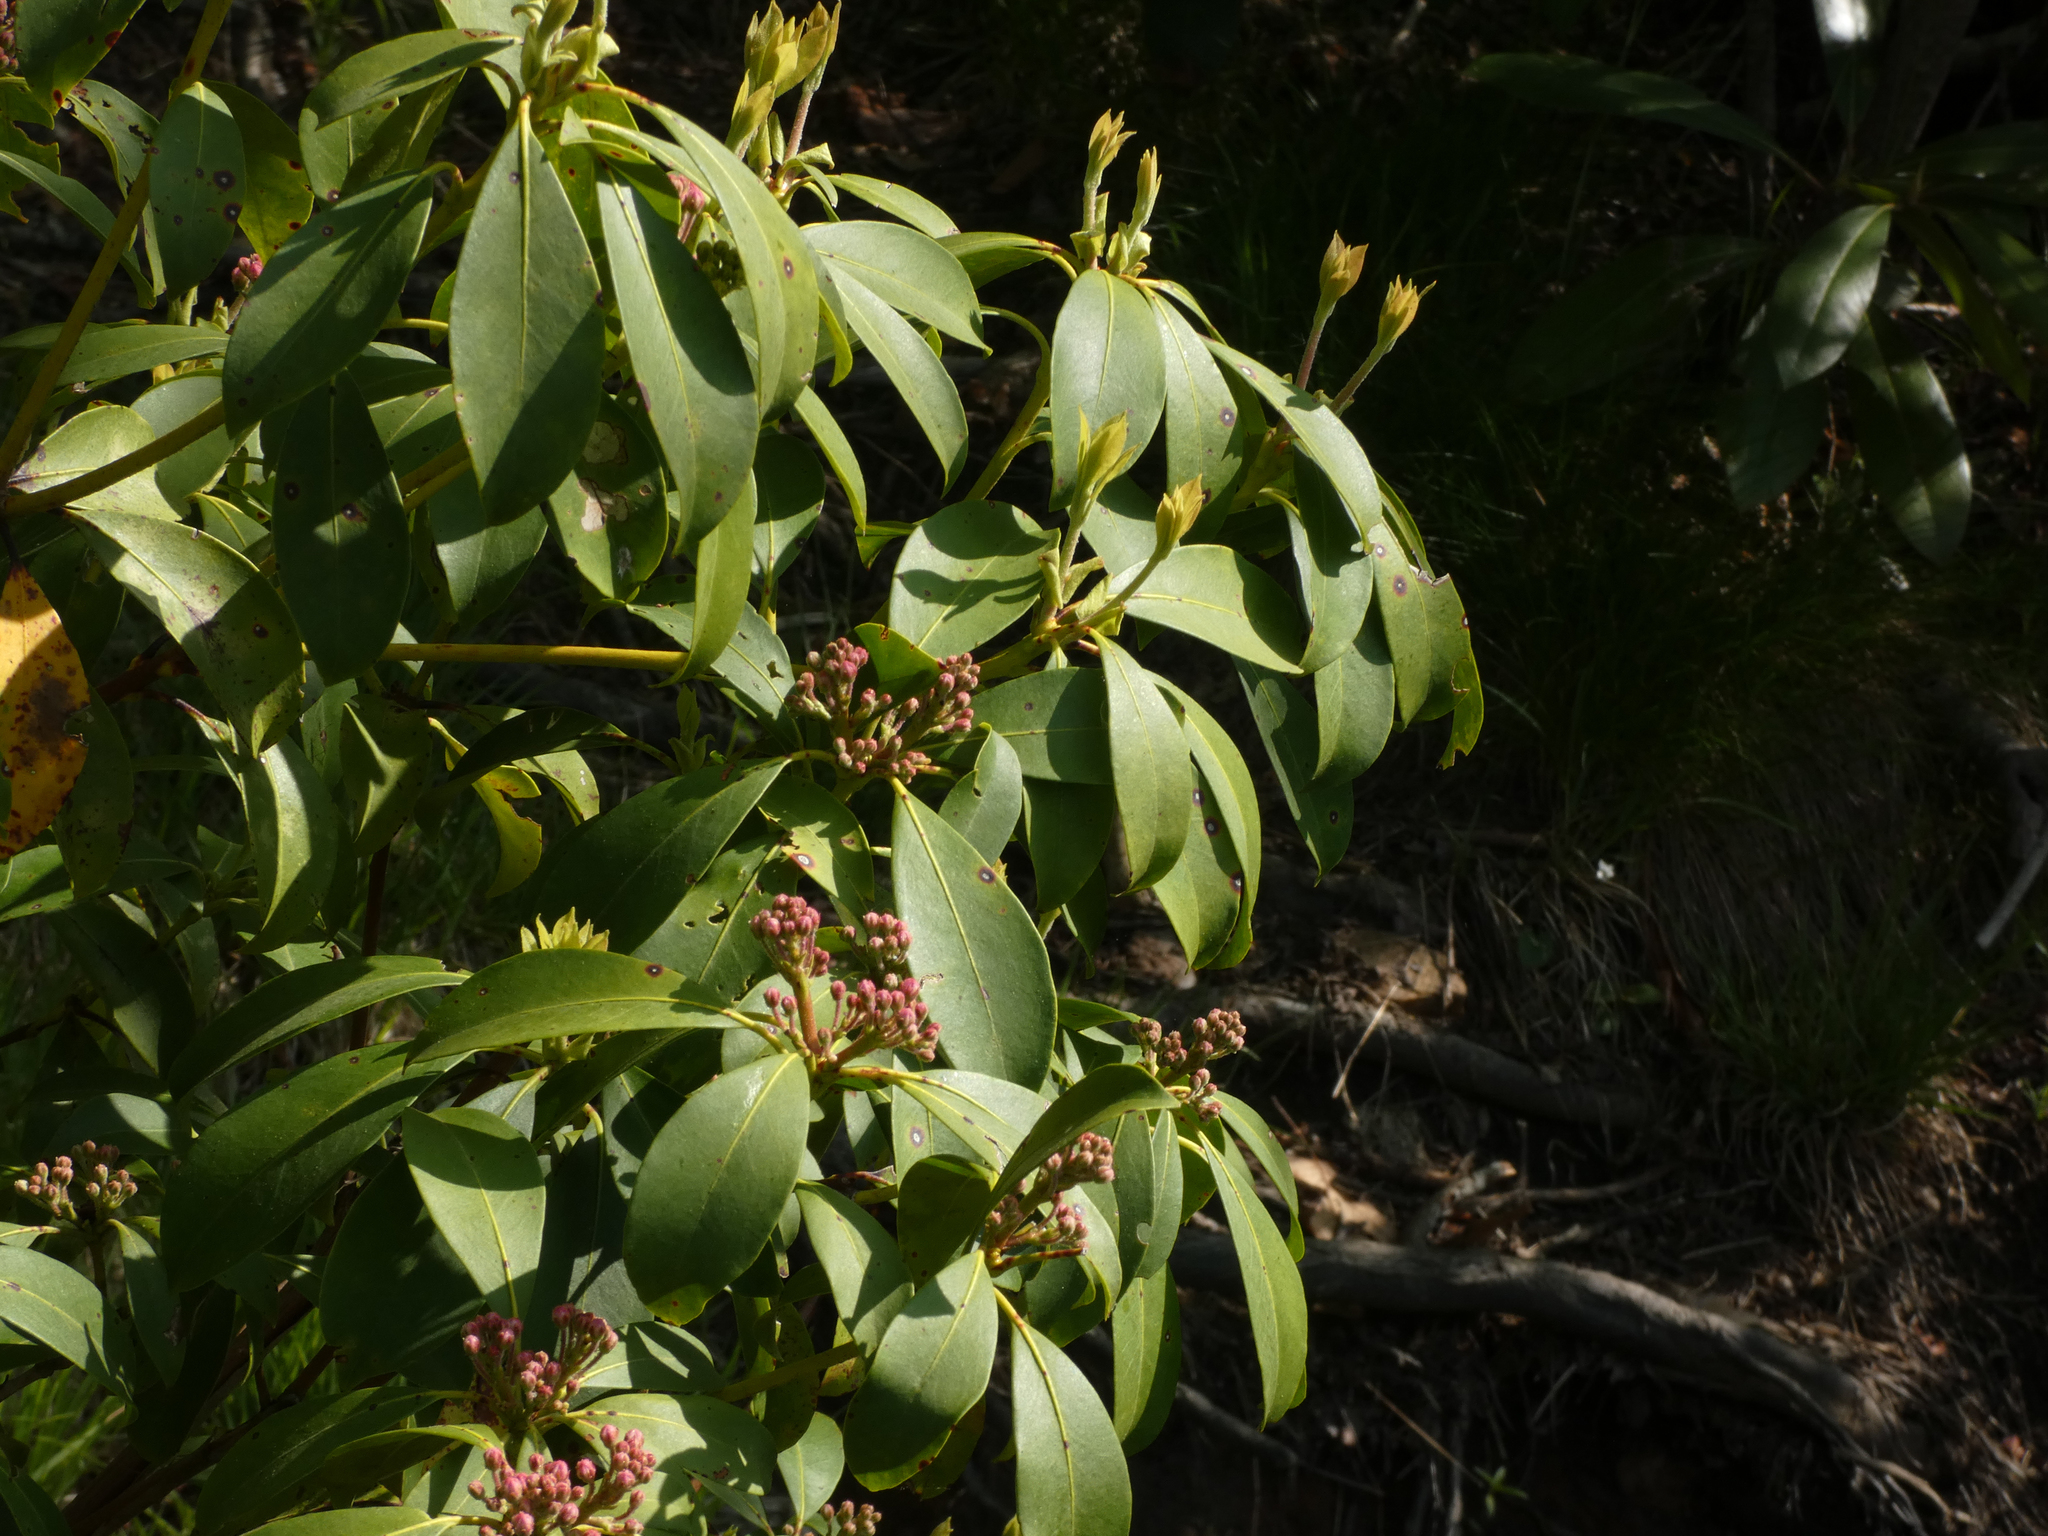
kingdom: Plantae
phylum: Tracheophyta
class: Magnoliopsida
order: Ericales
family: Ericaceae
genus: Kalmia
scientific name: Kalmia latifolia
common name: Mountain-laurel
